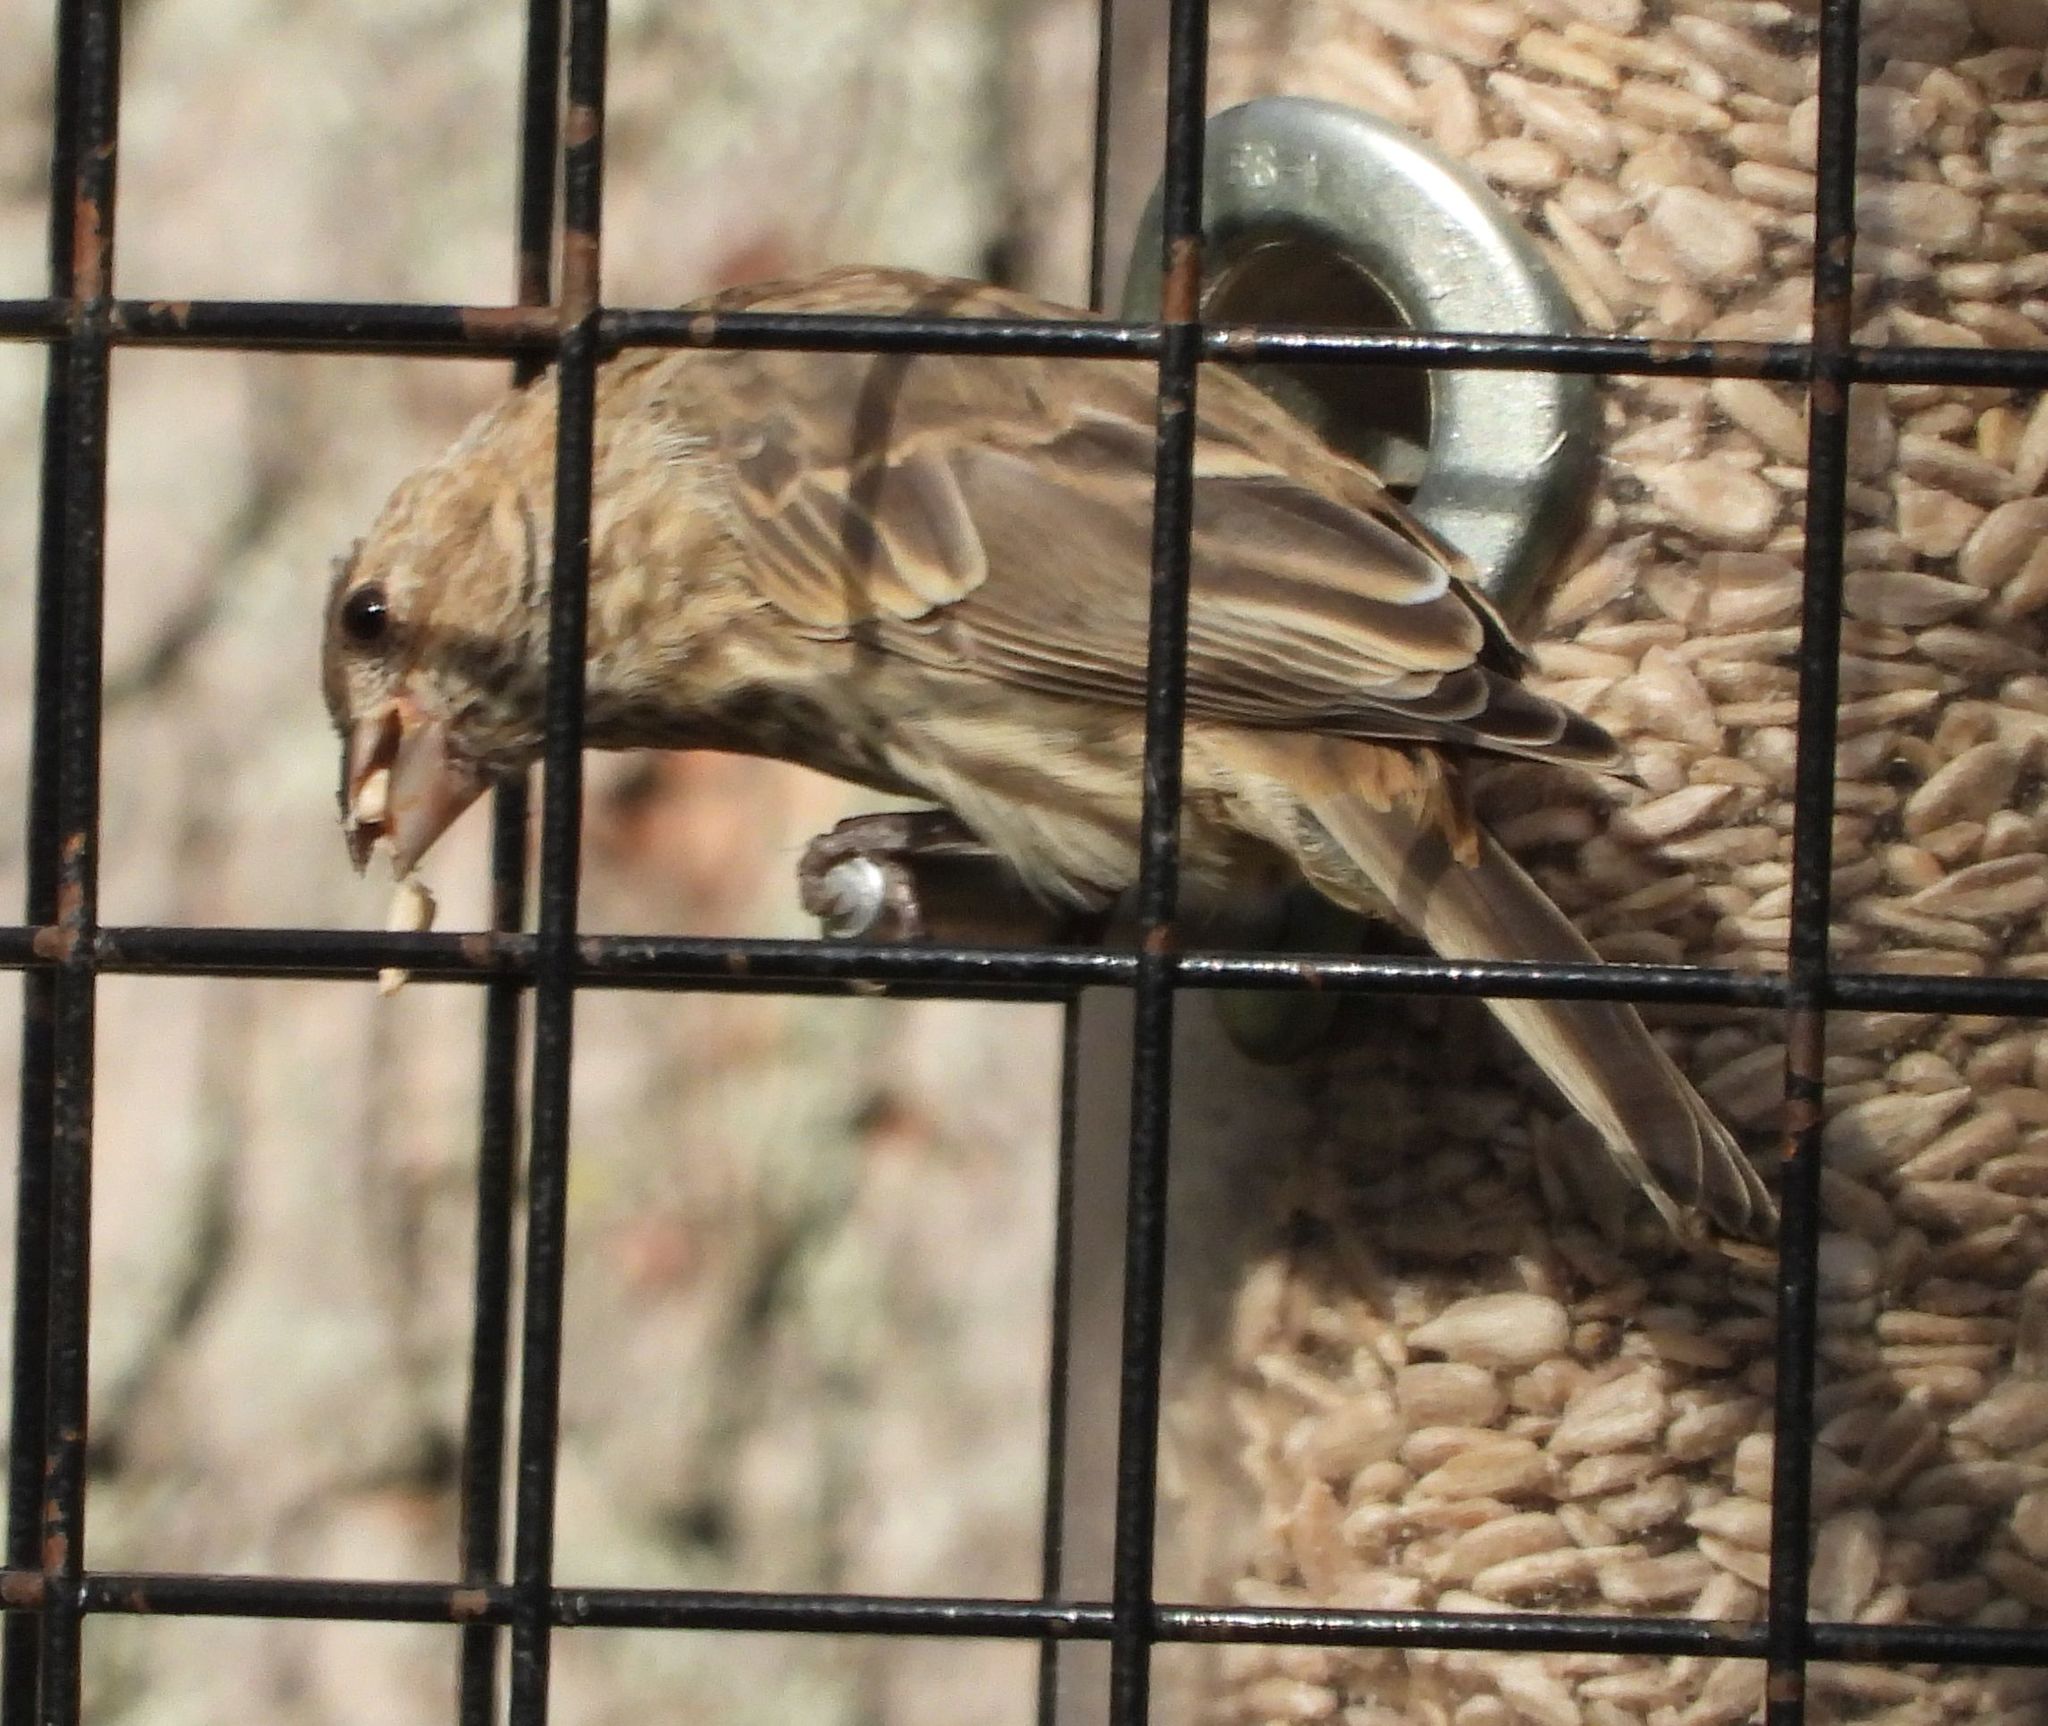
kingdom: Animalia
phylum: Chordata
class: Aves
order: Passeriformes
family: Fringillidae
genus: Haemorhous
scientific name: Haemorhous mexicanus
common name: House finch
